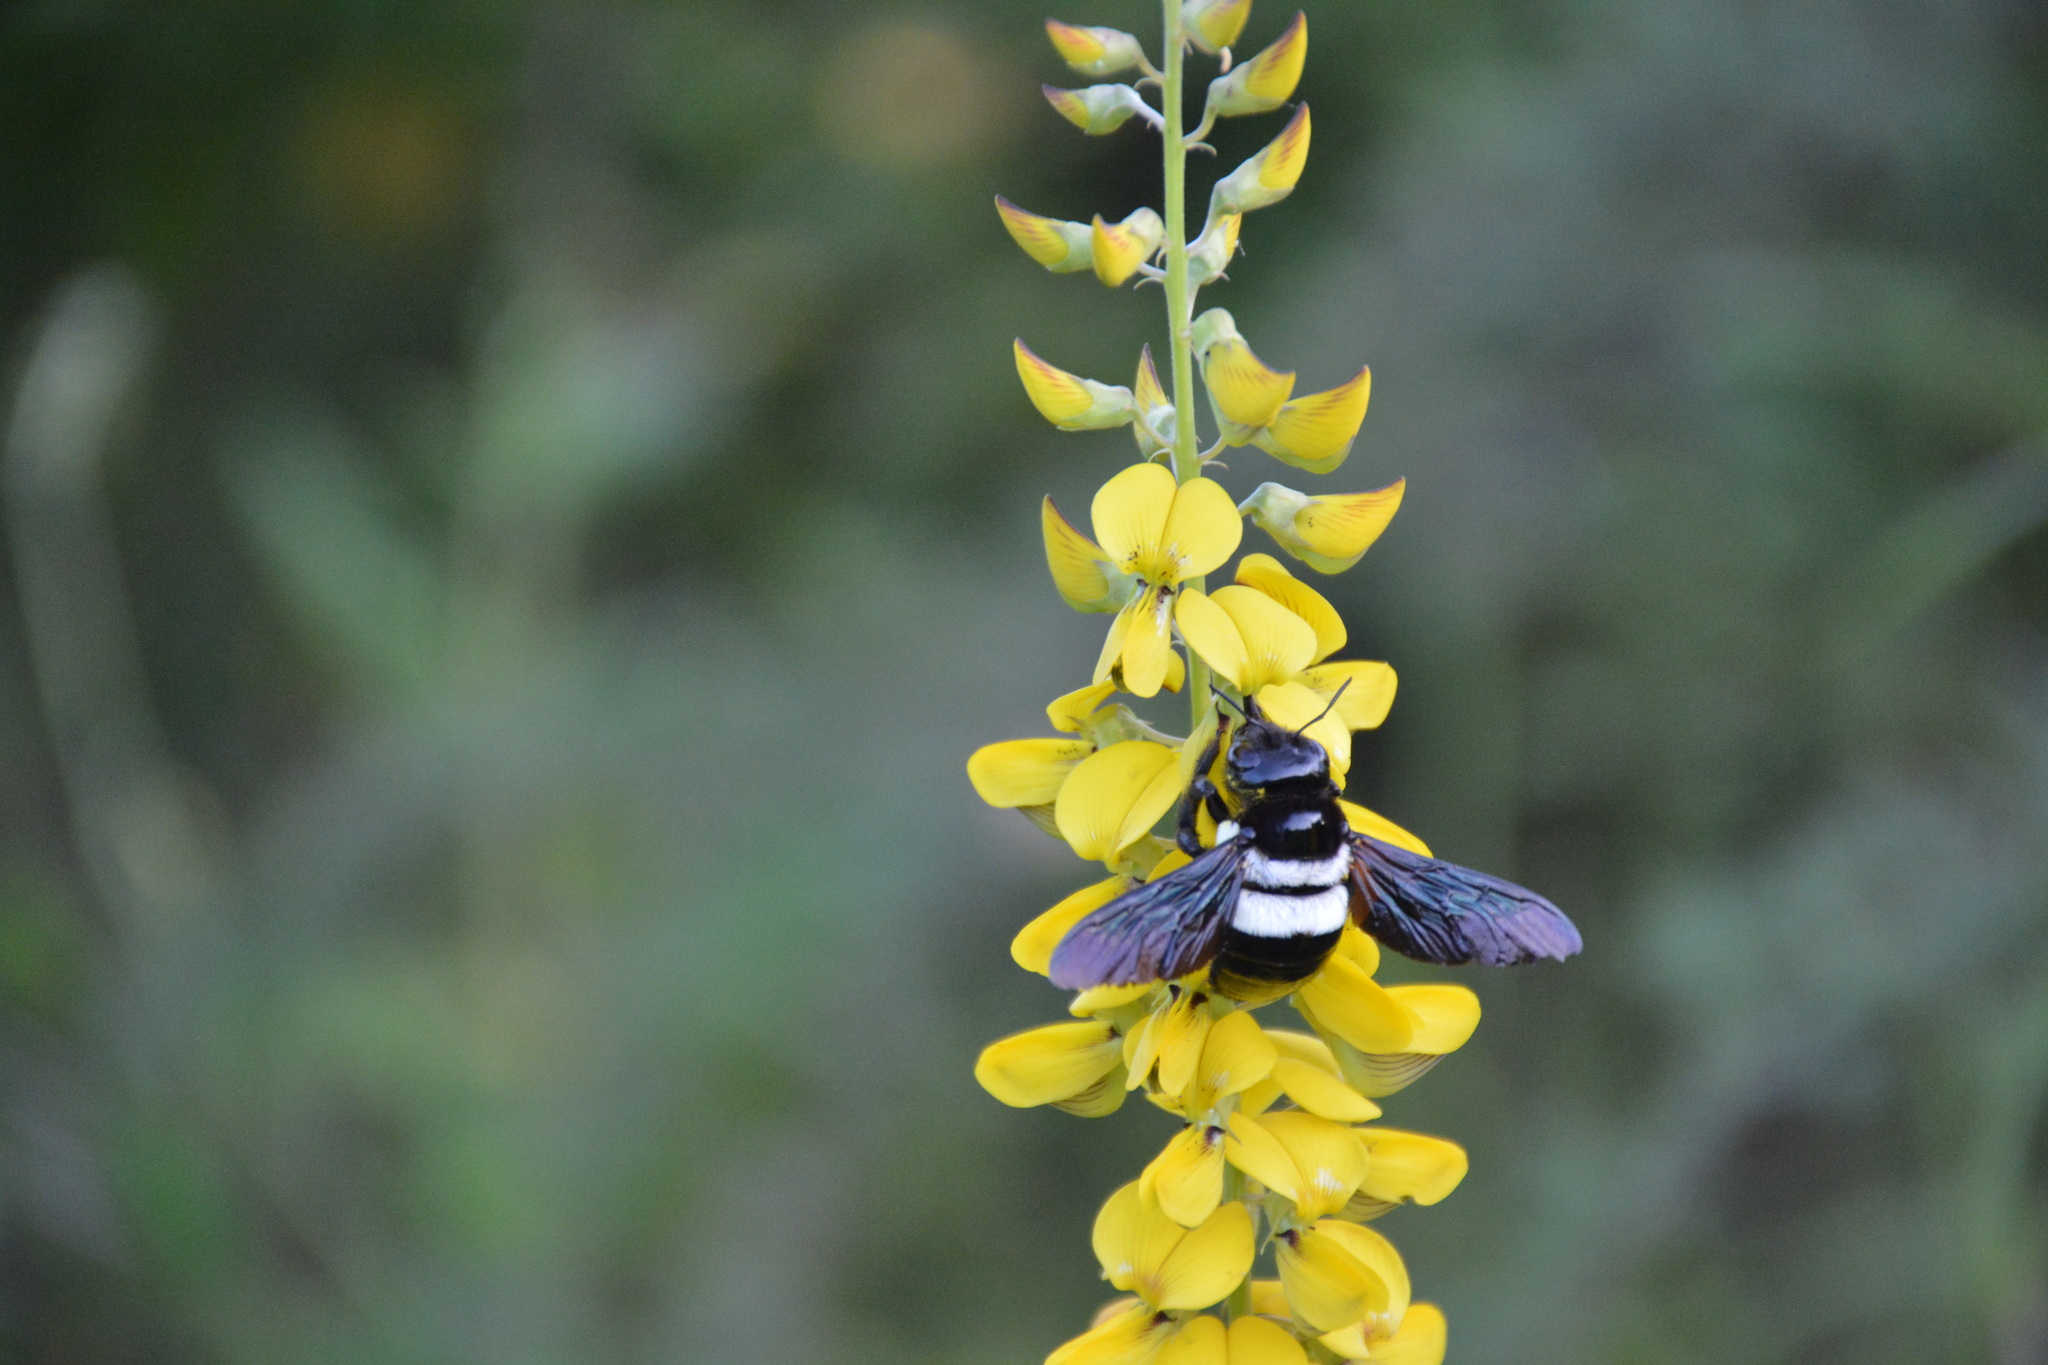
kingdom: Animalia
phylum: Arthropoda
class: Insecta
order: Hymenoptera
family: Apidae
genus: Xylocopa
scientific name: Xylocopa caffra
